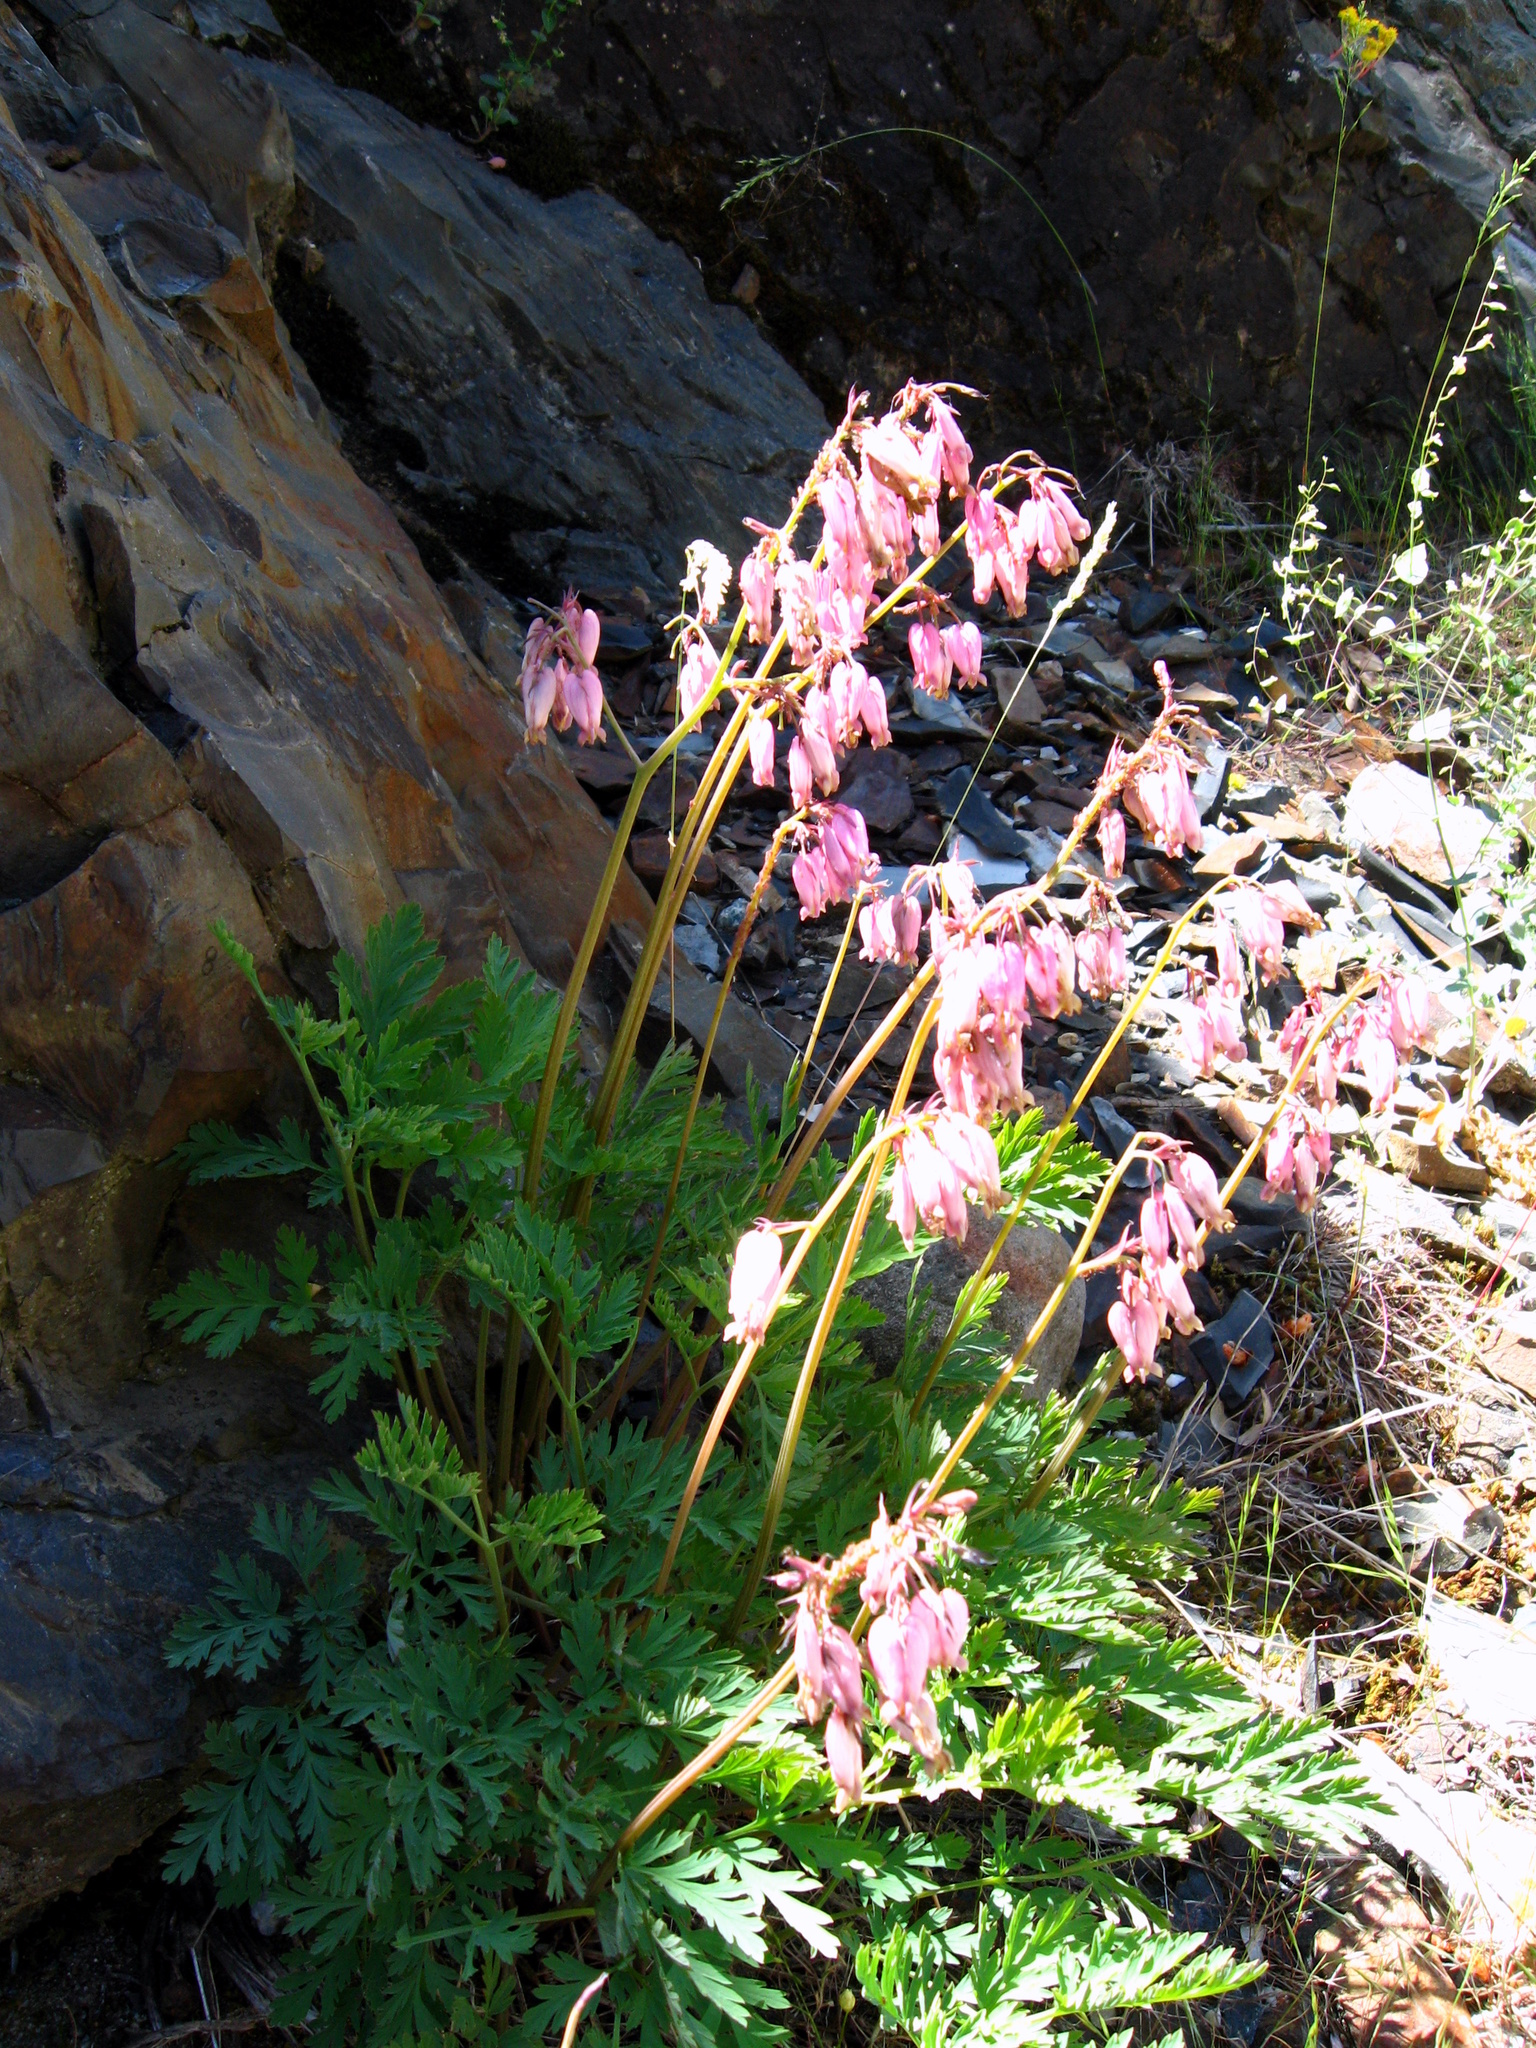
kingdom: Plantae
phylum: Tracheophyta
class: Magnoliopsida
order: Ranunculales
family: Papaveraceae
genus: Dicentra
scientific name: Dicentra formosa
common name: Bleeding-heart
